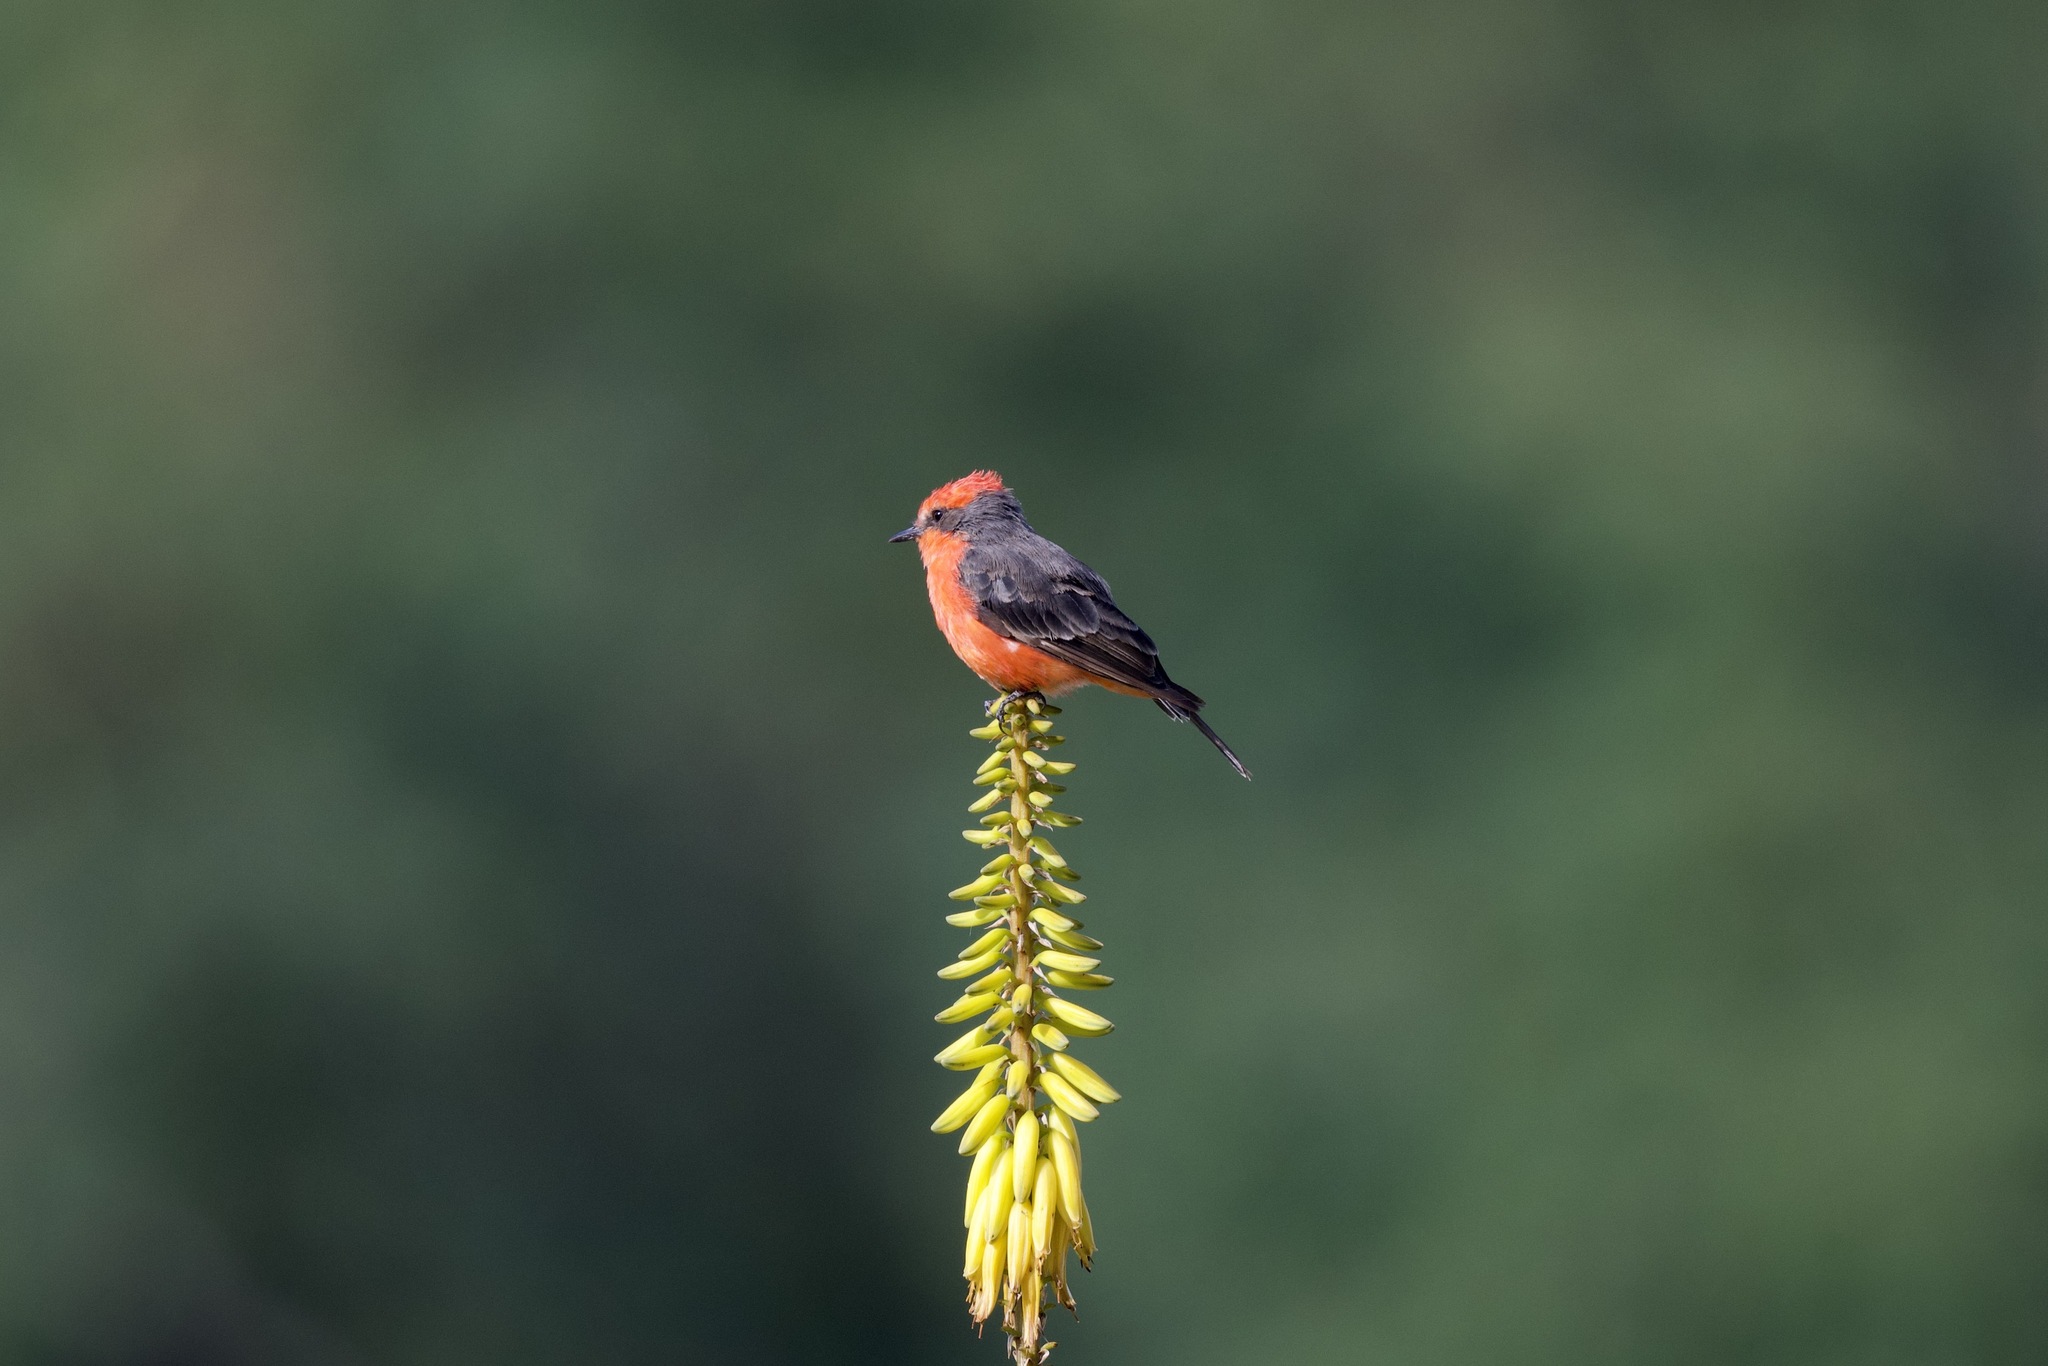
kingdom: Animalia
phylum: Chordata
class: Aves
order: Passeriformes
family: Tyrannidae
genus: Pyrocephalus
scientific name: Pyrocephalus rubinus
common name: Vermilion flycatcher
